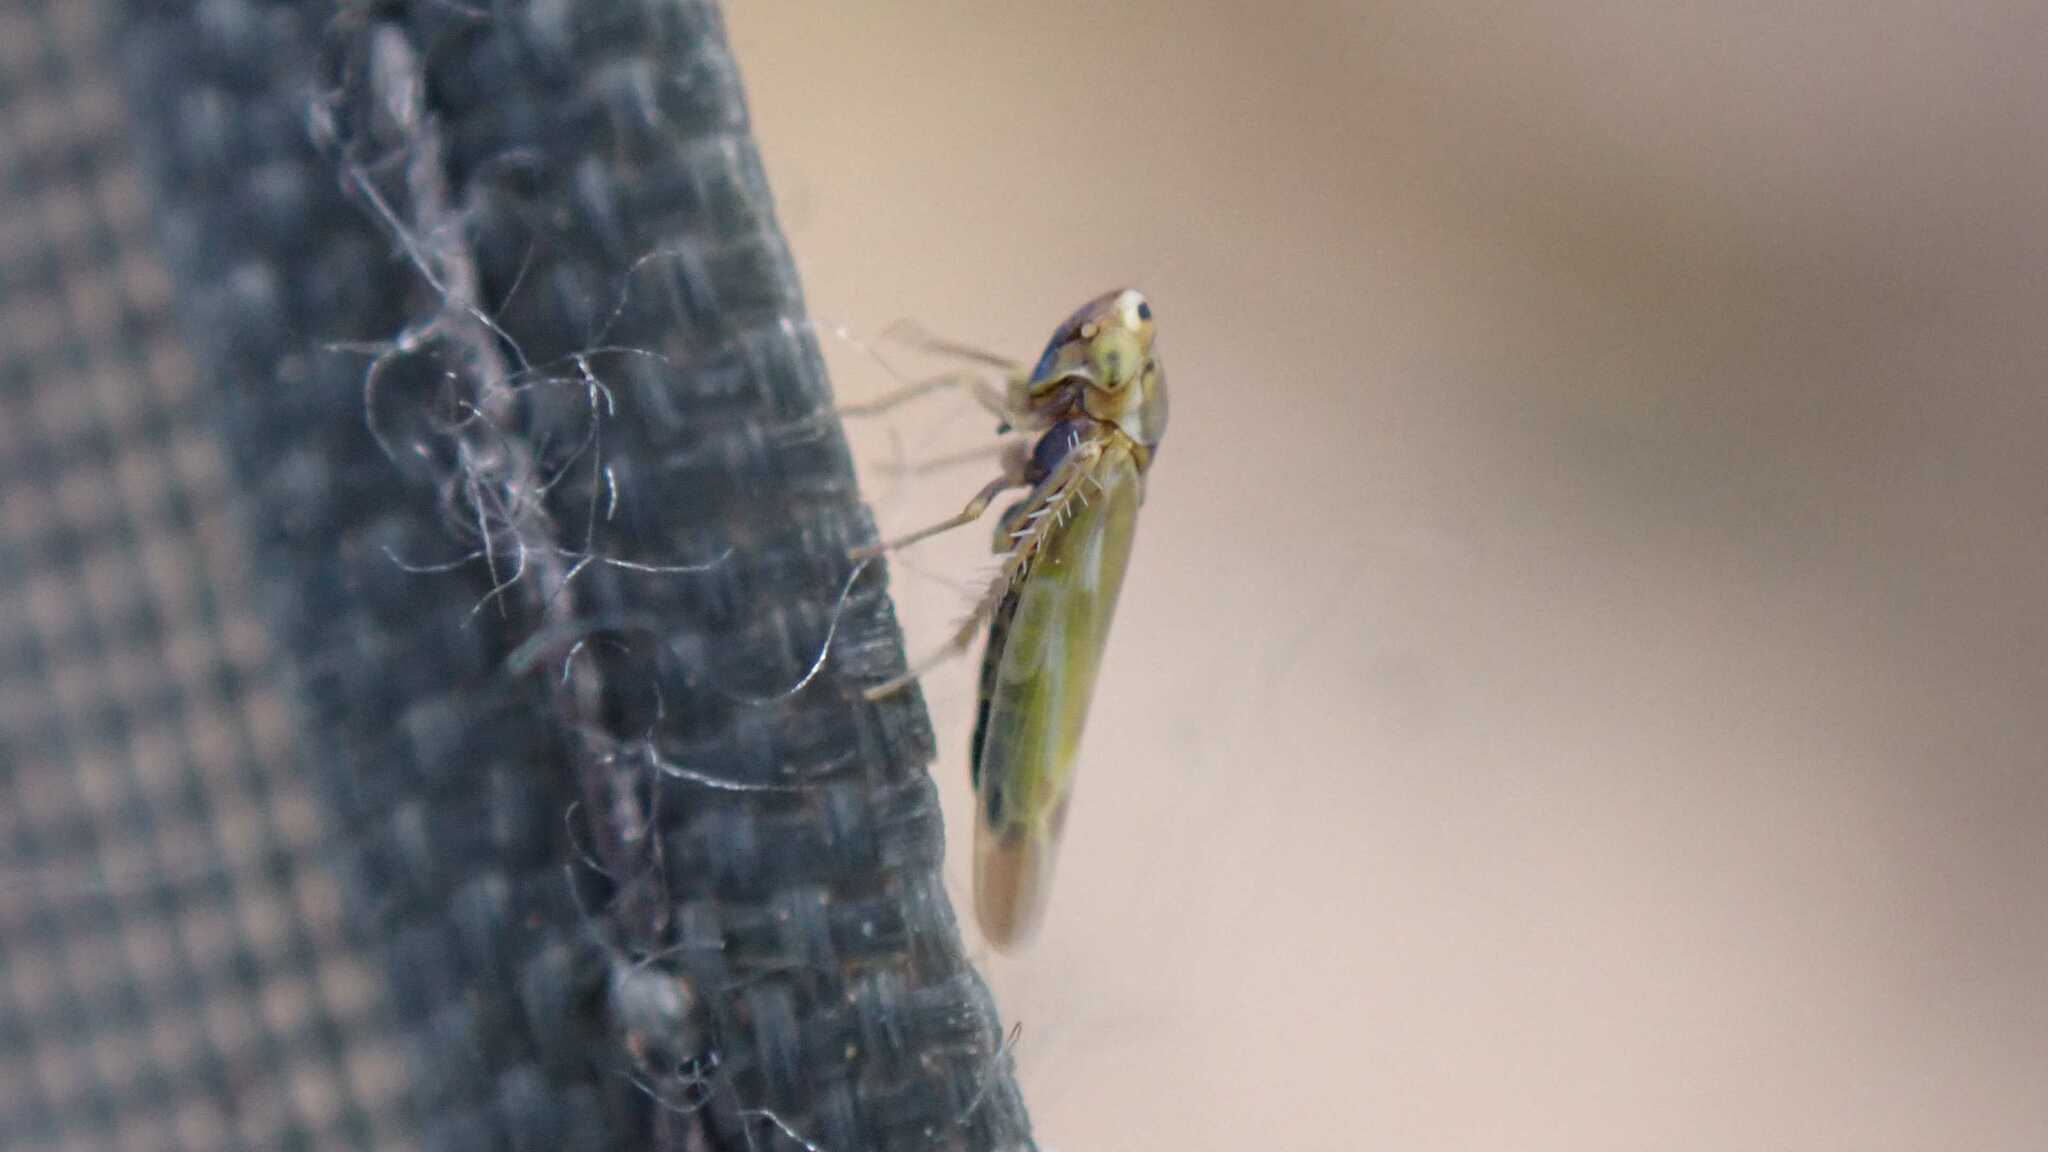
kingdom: Animalia
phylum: Arthropoda
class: Insecta
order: Hemiptera
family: Cicadellidae
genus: Frutioidia
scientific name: Frutioidia bisignata
